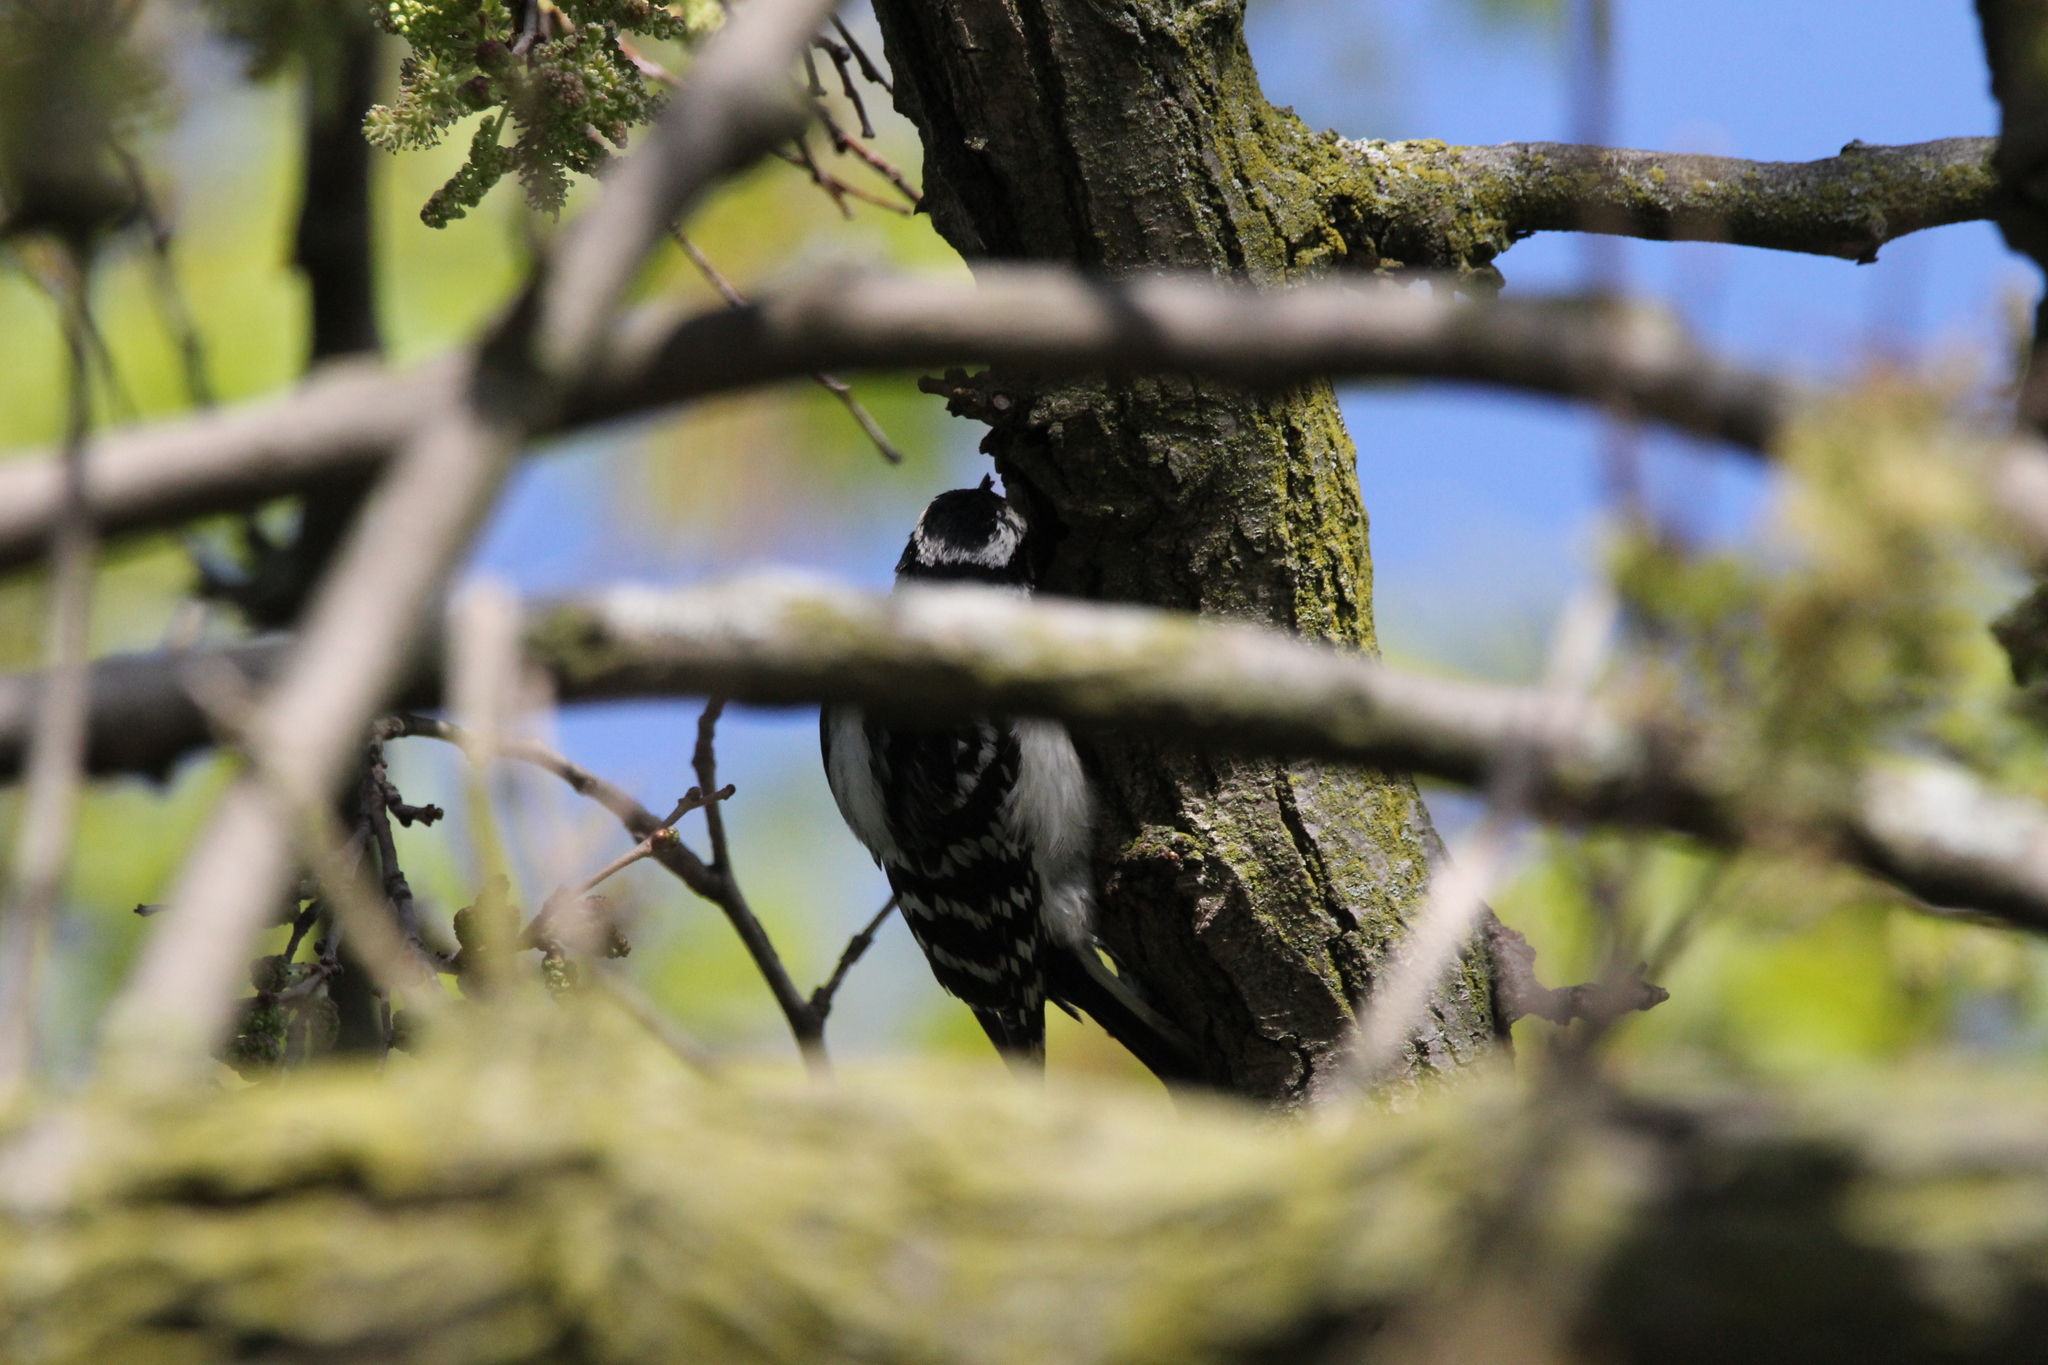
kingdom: Animalia
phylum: Chordata
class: Aves
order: Piciformes
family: Picidae
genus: Dryobates
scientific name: Dryobates pubescens
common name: Downy woodpecker
